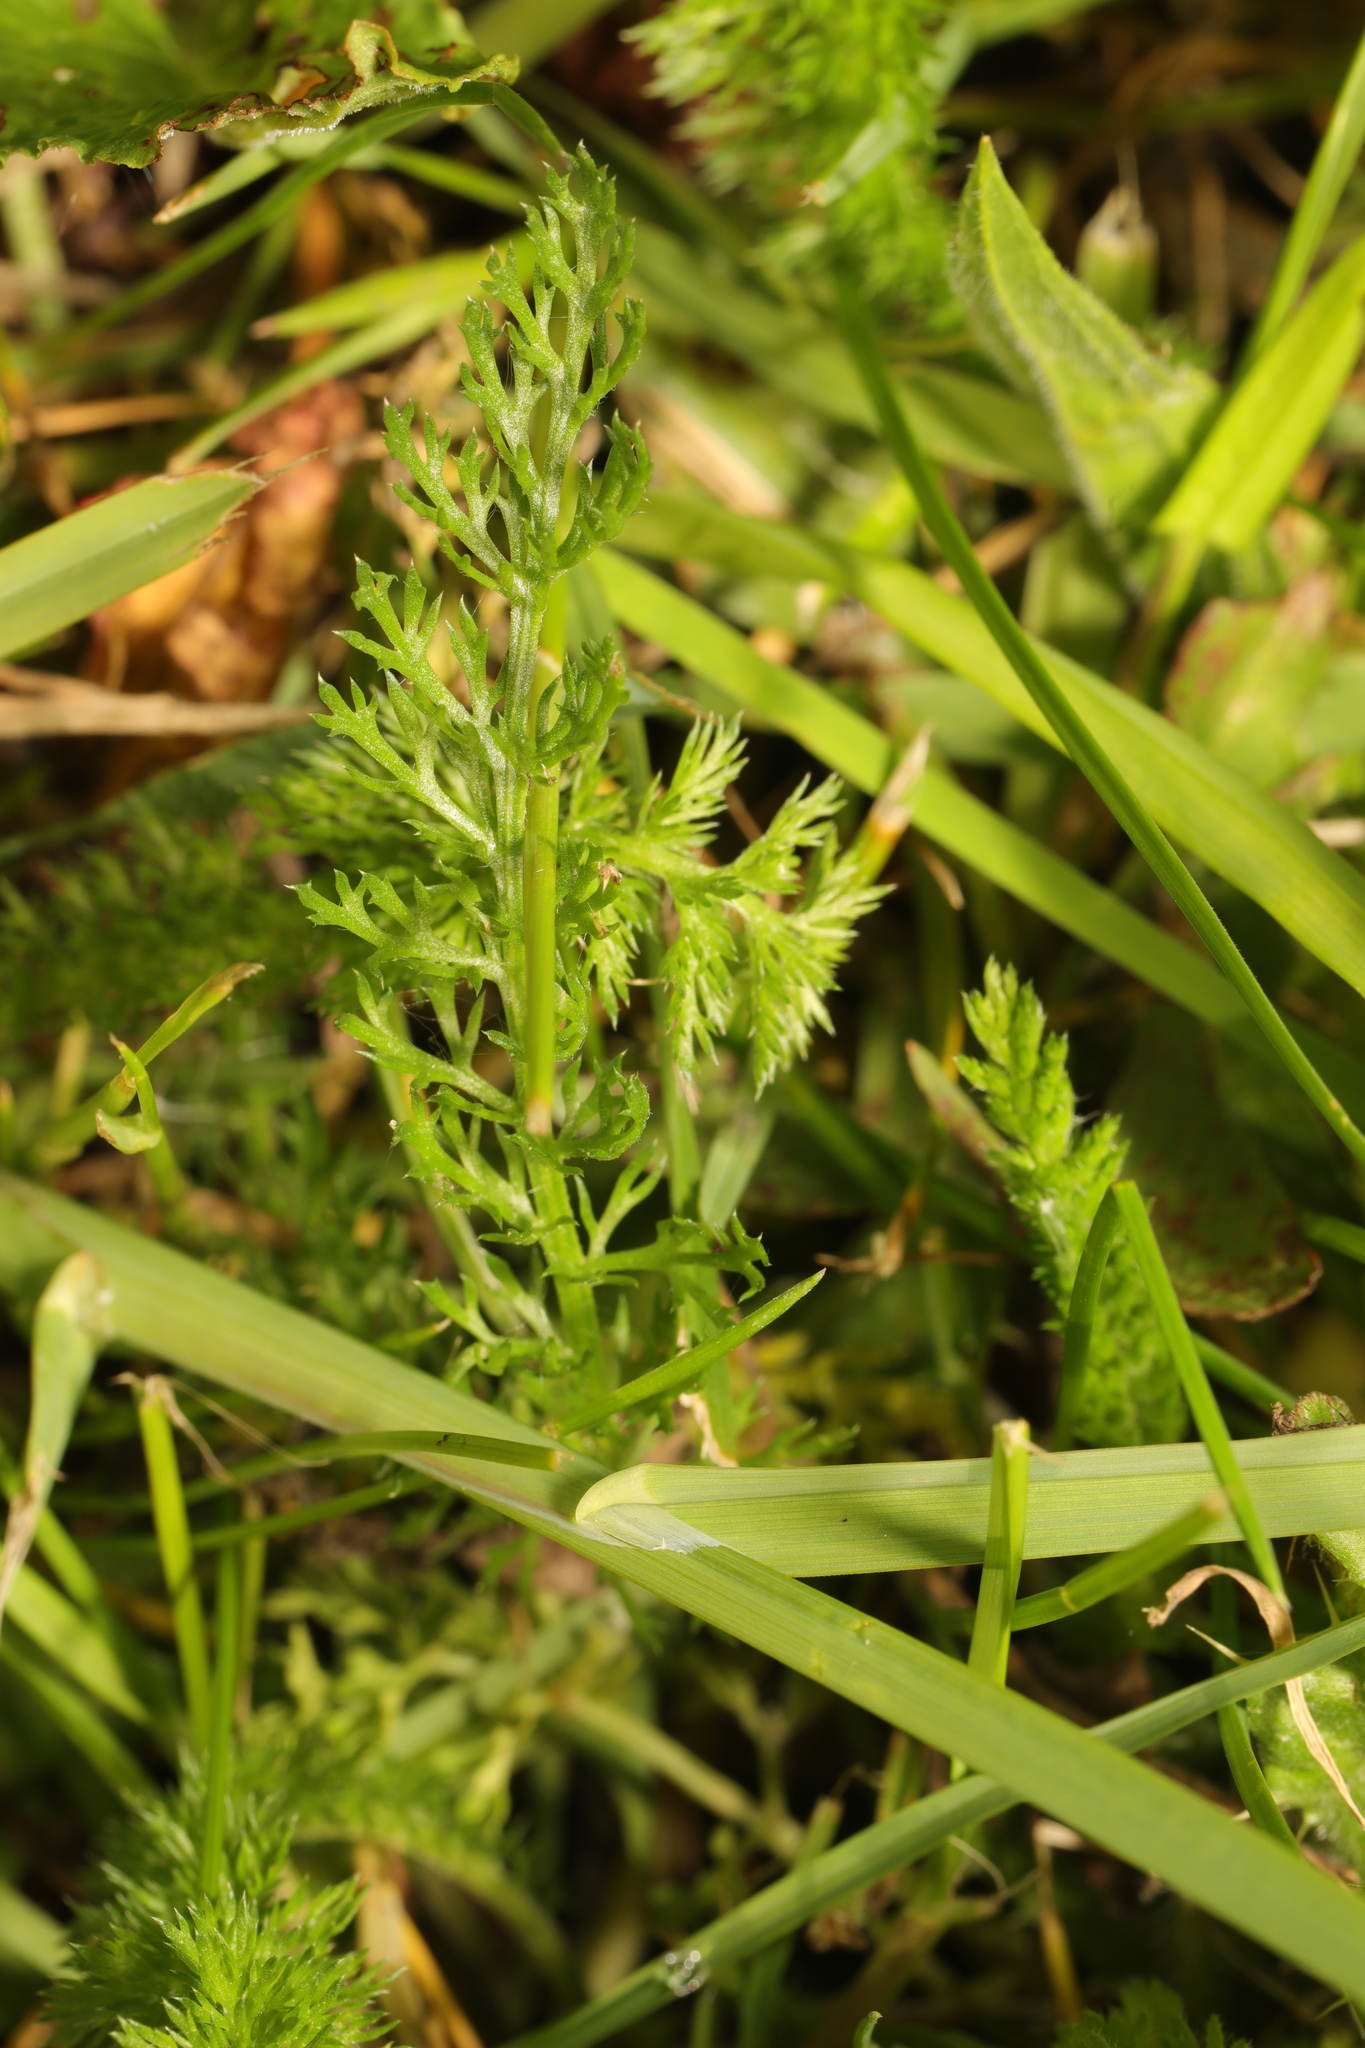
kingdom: Plantae
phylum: Tracheophyta
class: Magnoliopsida
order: Asterales
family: Asteraceae
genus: Achillea
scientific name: Achillea millefolium
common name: Yarrow
